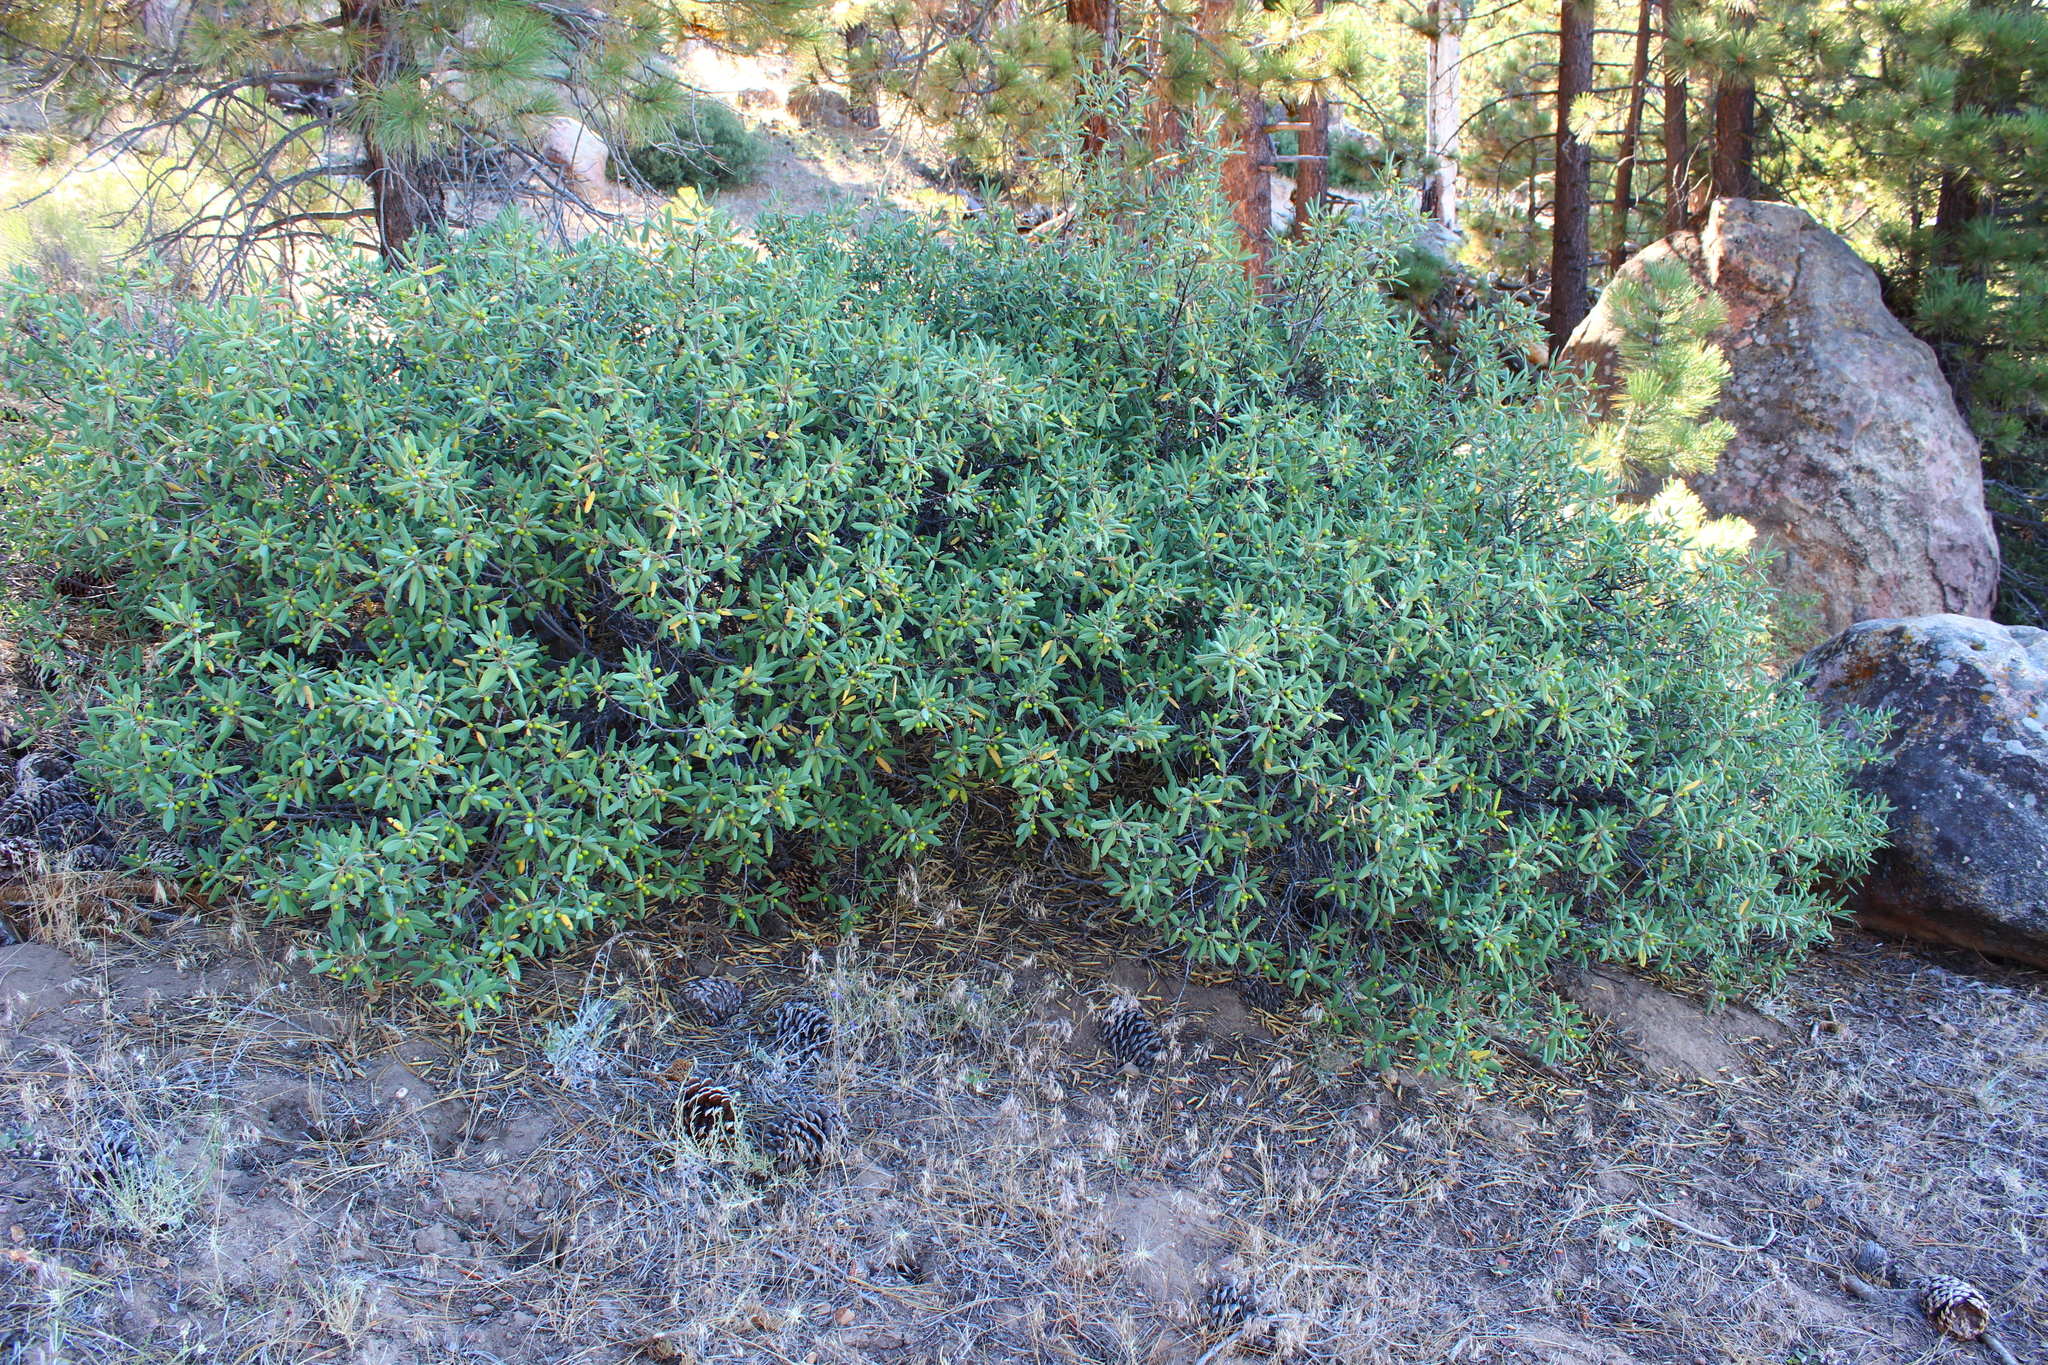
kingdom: Plantae
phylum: Tracheophyta
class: Magnoliopsida
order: Rosales
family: Rhamnaceae
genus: Frangula
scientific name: Frangula californica
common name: California buckthorn
